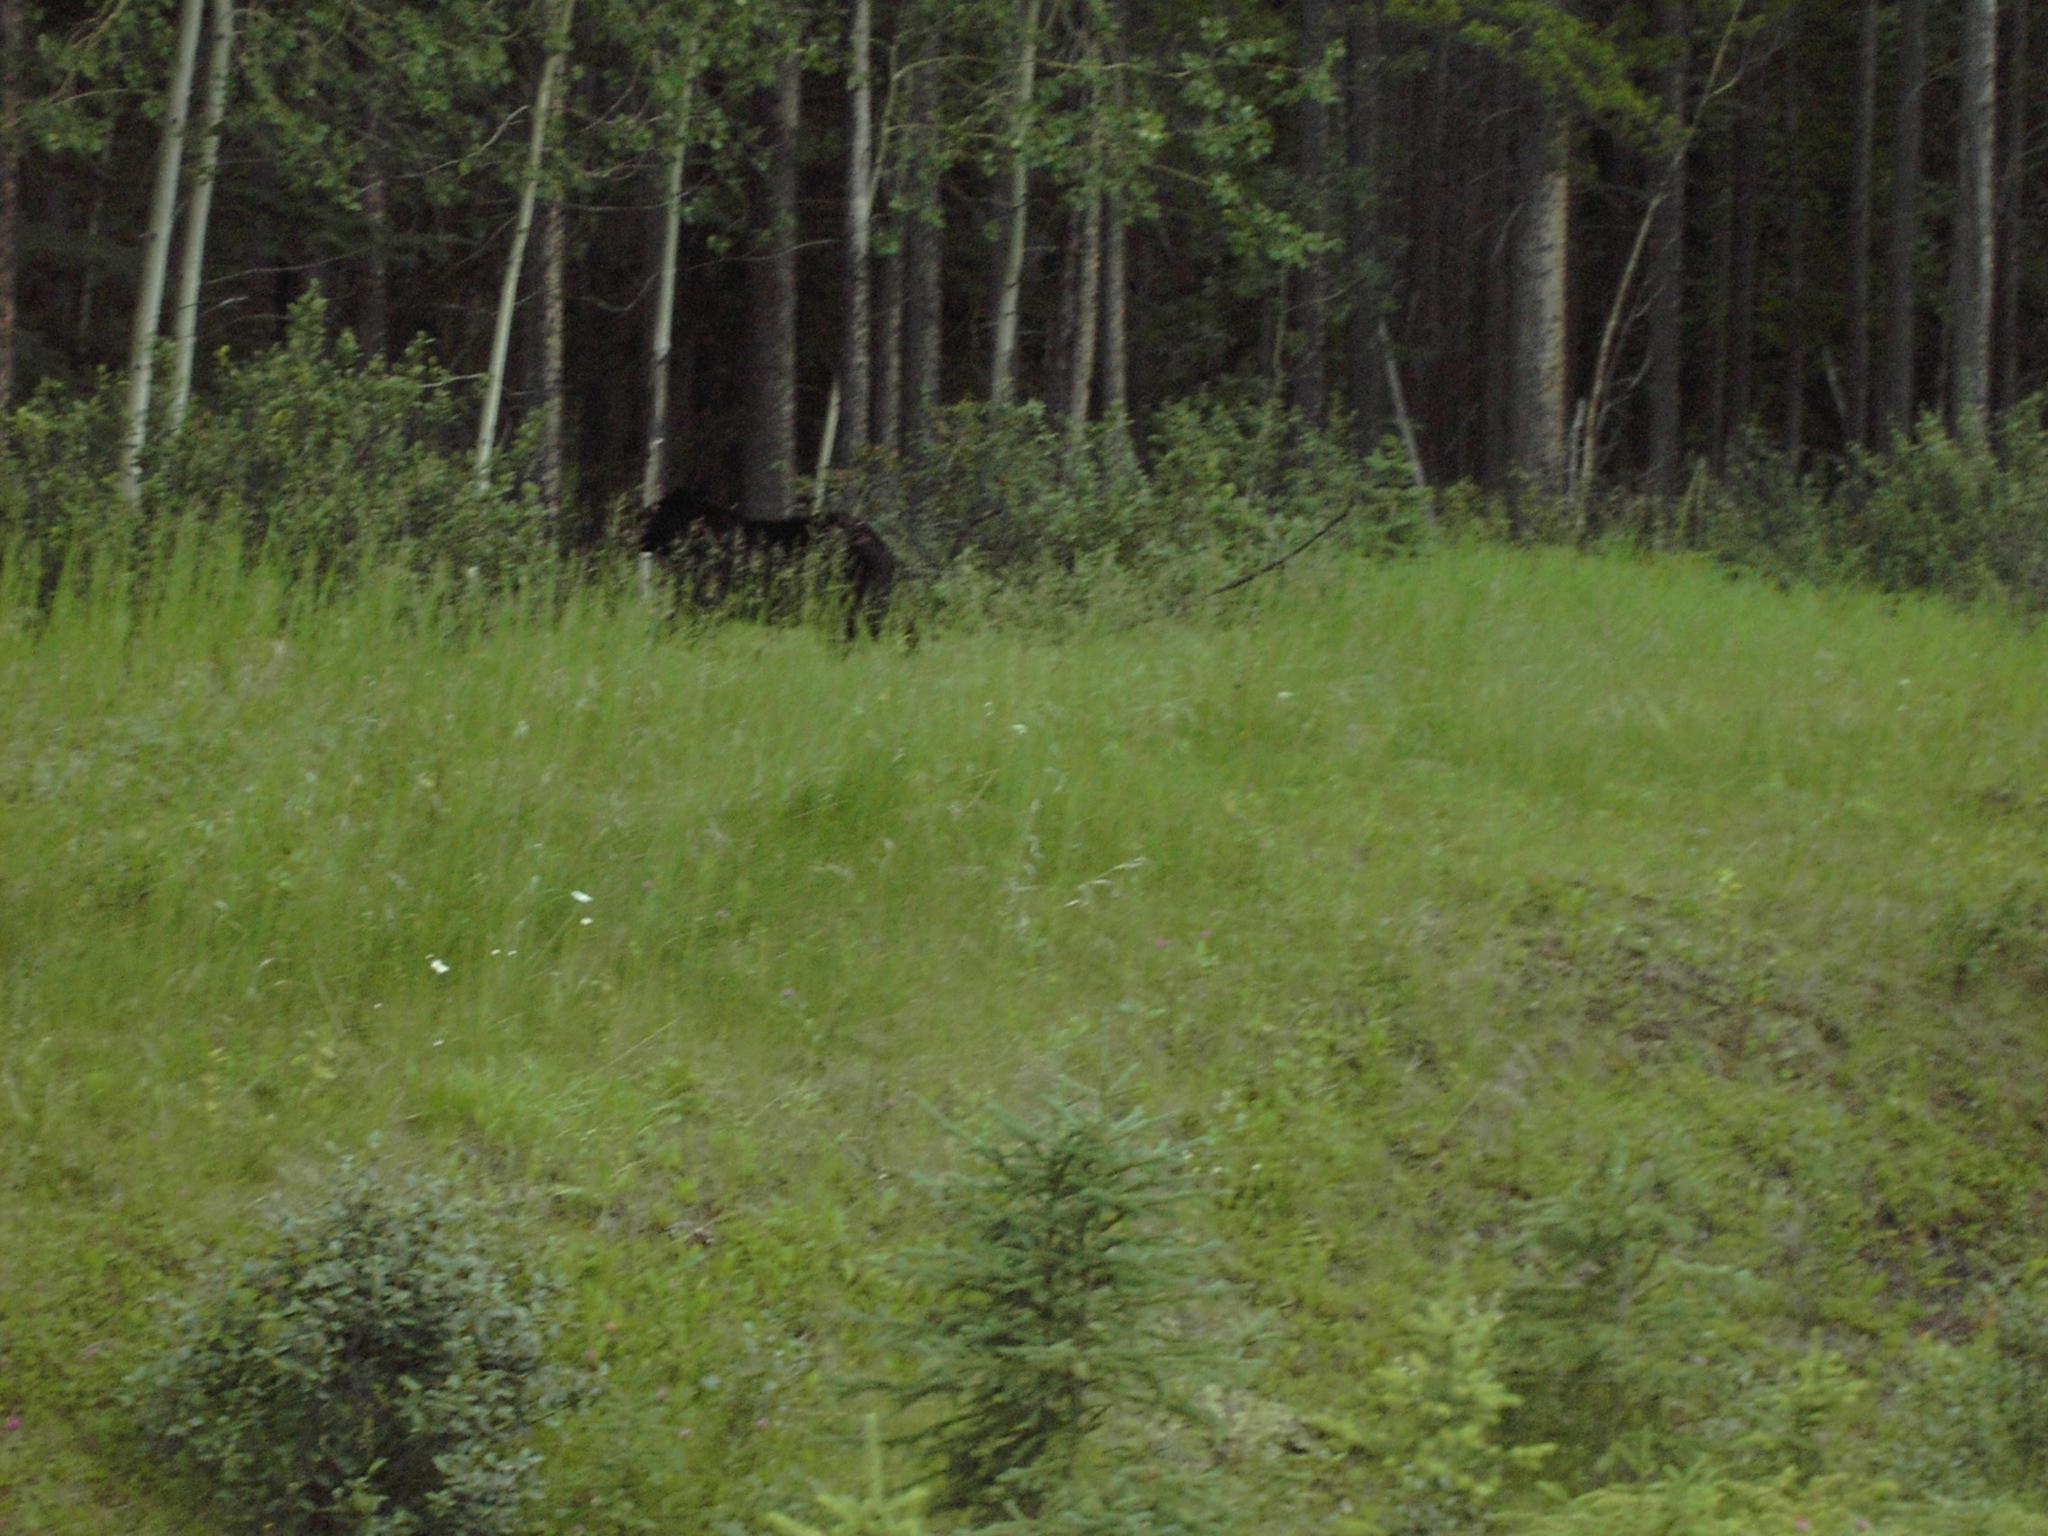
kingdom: Animalia
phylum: Chordata
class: Mammalia
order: Carnivora
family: Ursidae
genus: Ursus
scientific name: Ursus americanus
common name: American black bear
